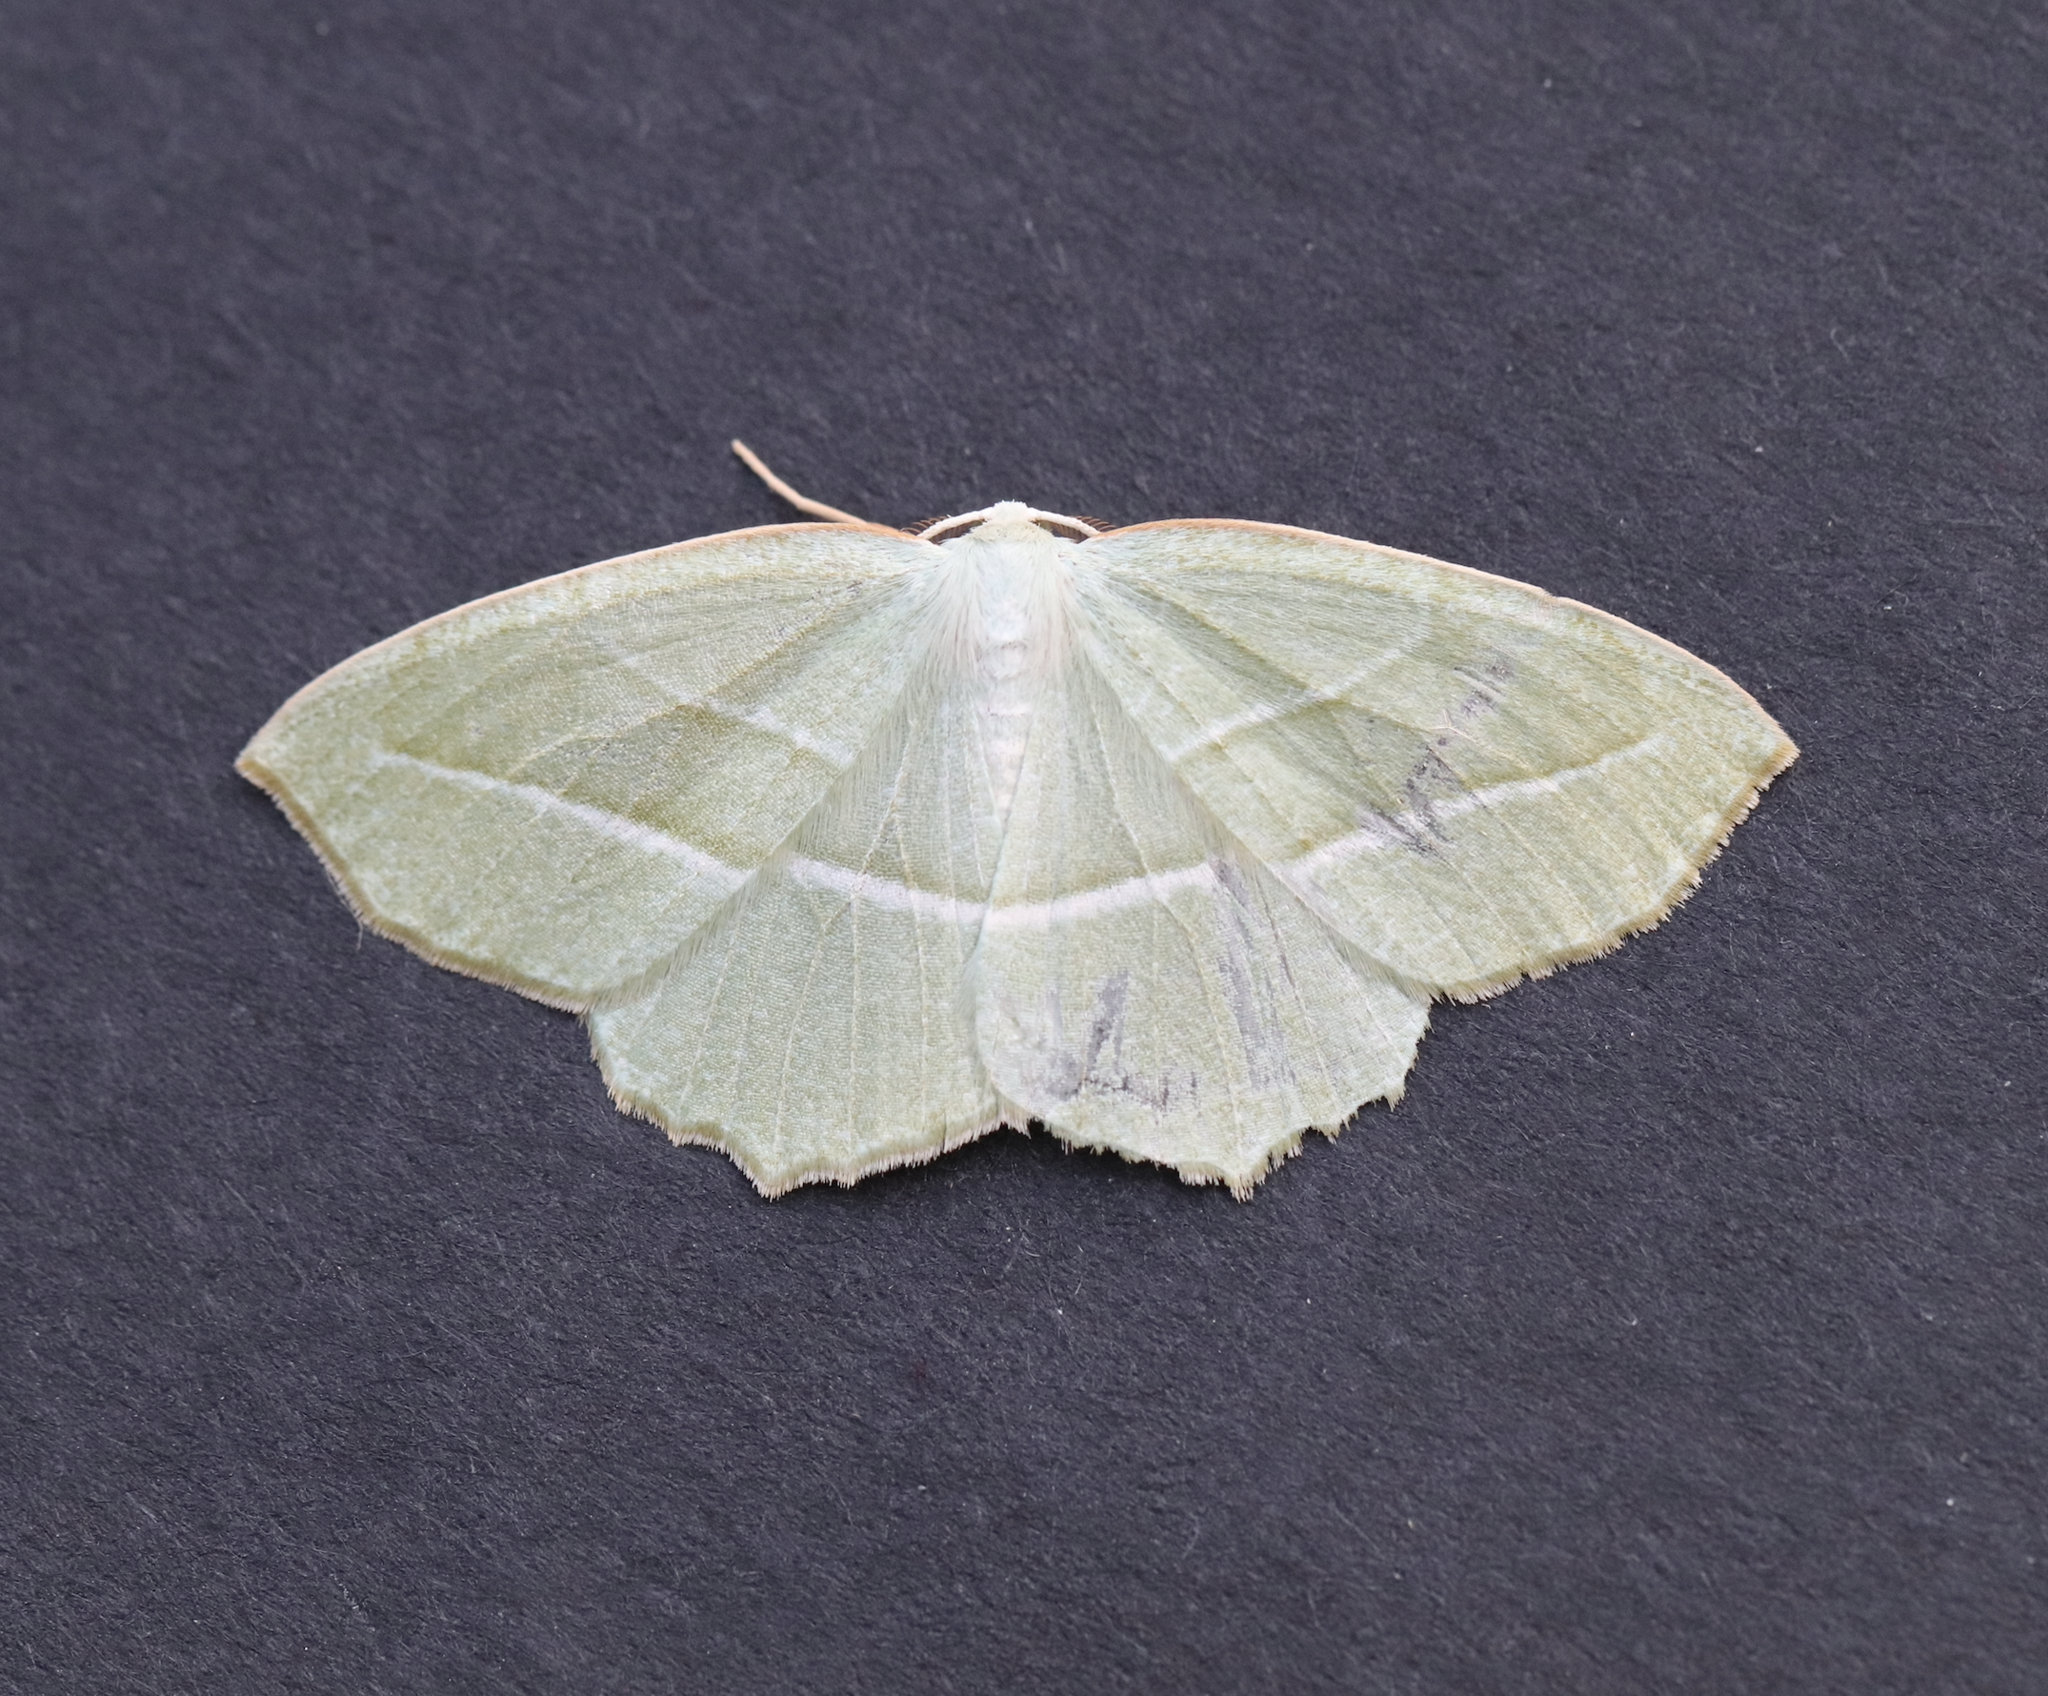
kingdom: Animalia
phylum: Arthropoda
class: Insecta
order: Lepidoptera
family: Geometridae
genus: Campaea
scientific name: Campaea perlata
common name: Fringed looper
